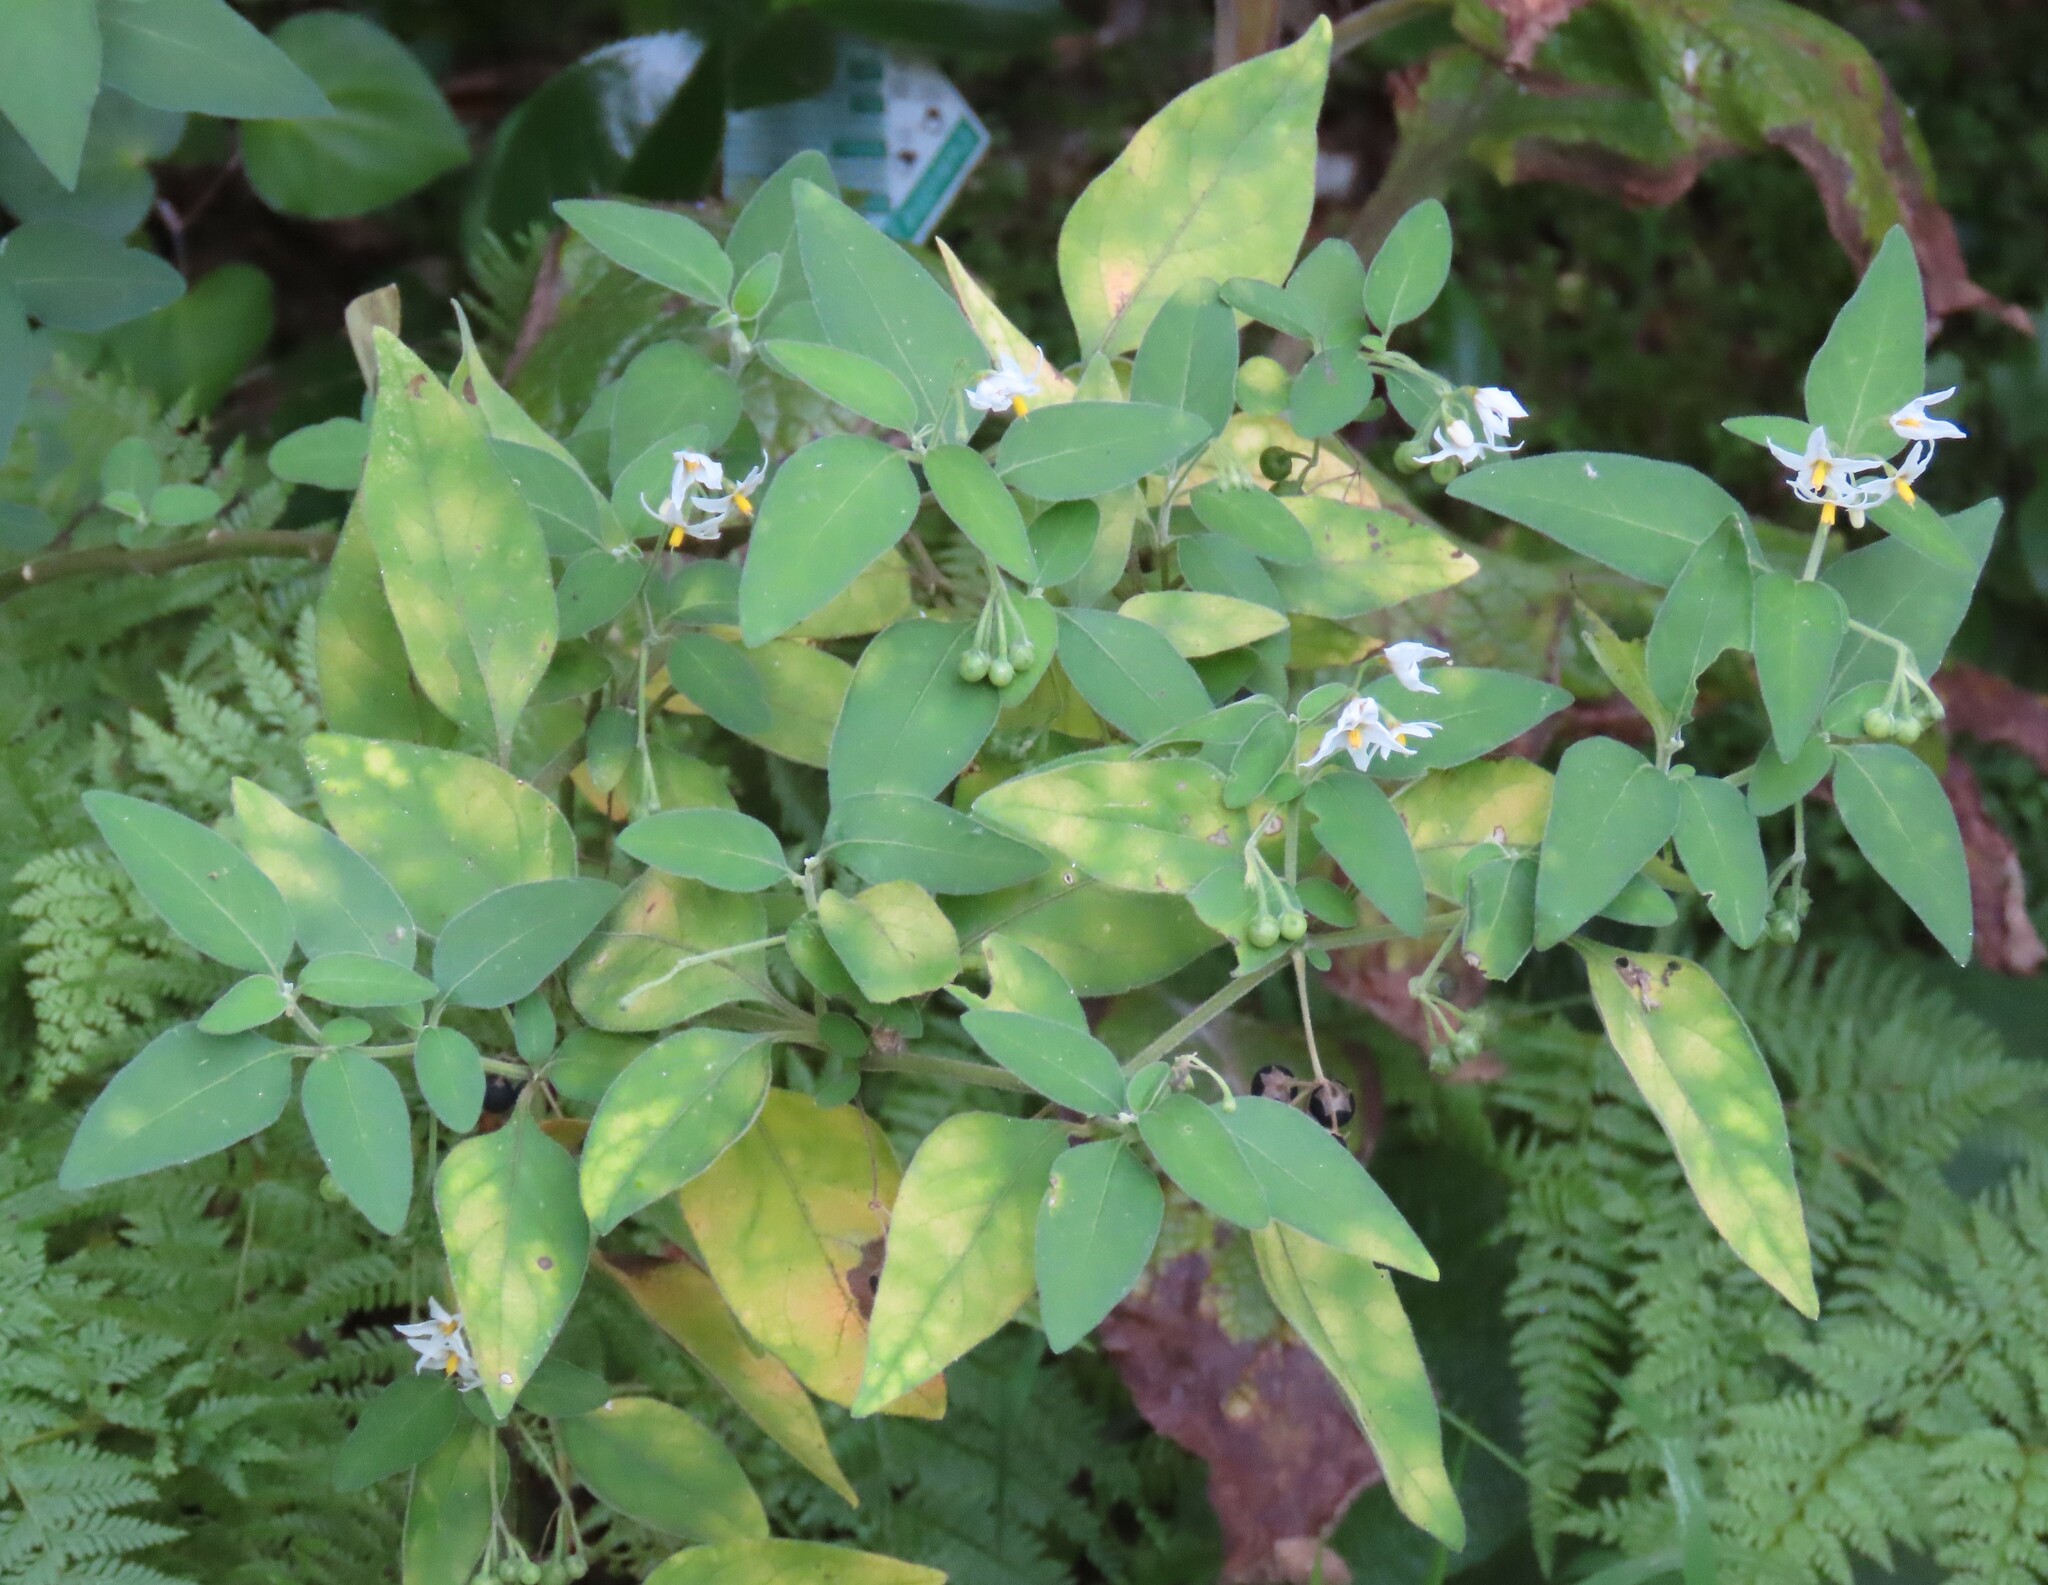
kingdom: Plantae
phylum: Tracheophyta
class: Magnoliopsida
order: Solanales
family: Solanaceae
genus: Solanum
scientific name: Solanum chenopodioides
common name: Tall nightshade
